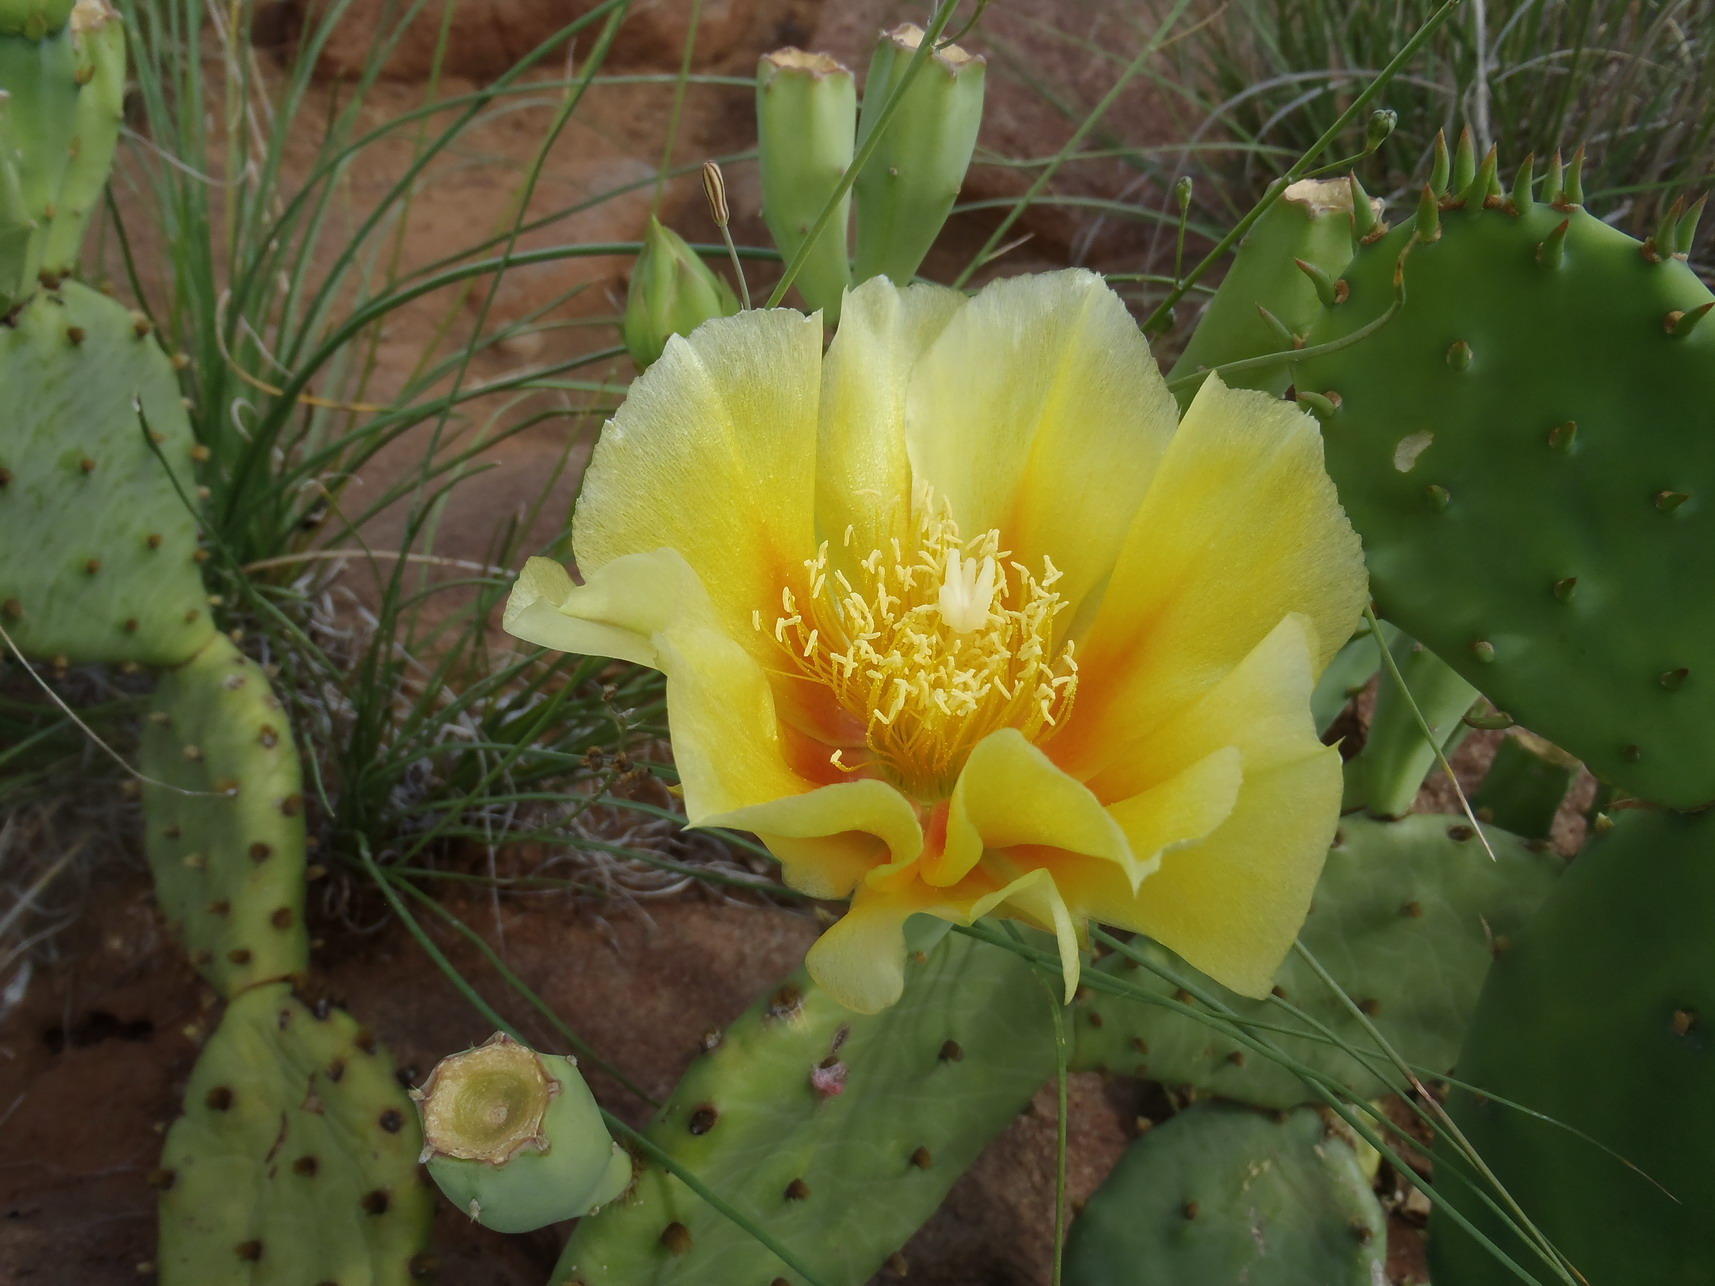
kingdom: Plantae
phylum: Tracheophyta
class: Magnoliopsida
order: Caryophyllales
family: Cactaceae
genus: Opuntia
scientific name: Opuntia humifusa
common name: Eastern prickly-pear
